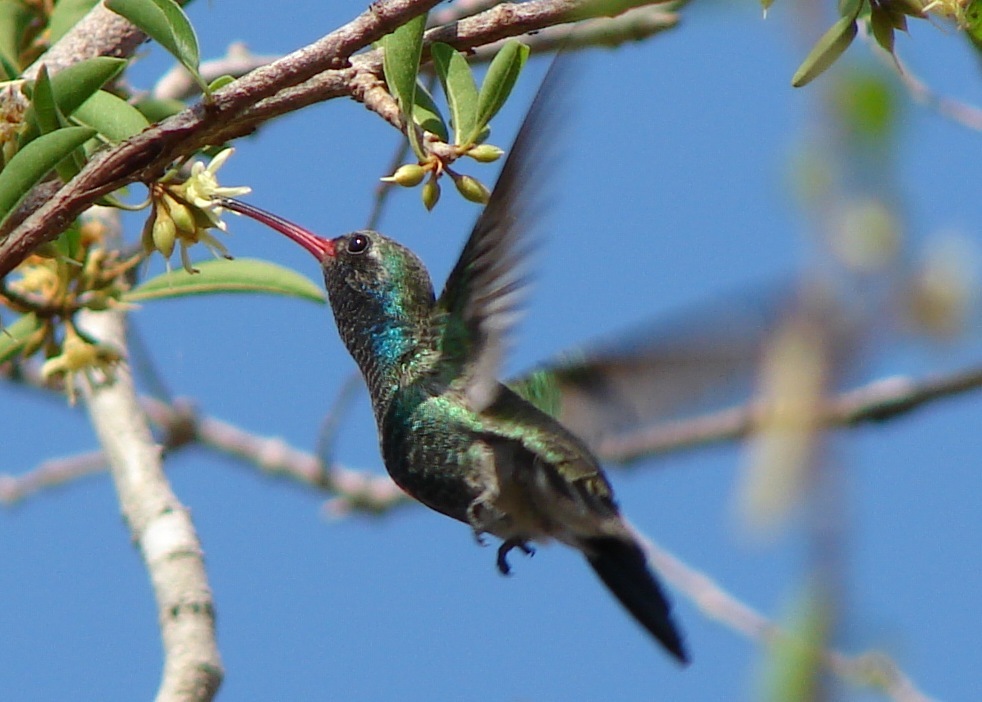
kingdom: Animalia
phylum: Chordata
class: Aves
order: Apodiformes
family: Trochilidae
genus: Cynanthus
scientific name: Cynanthus latirostris
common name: Broad-billed hummingbird
